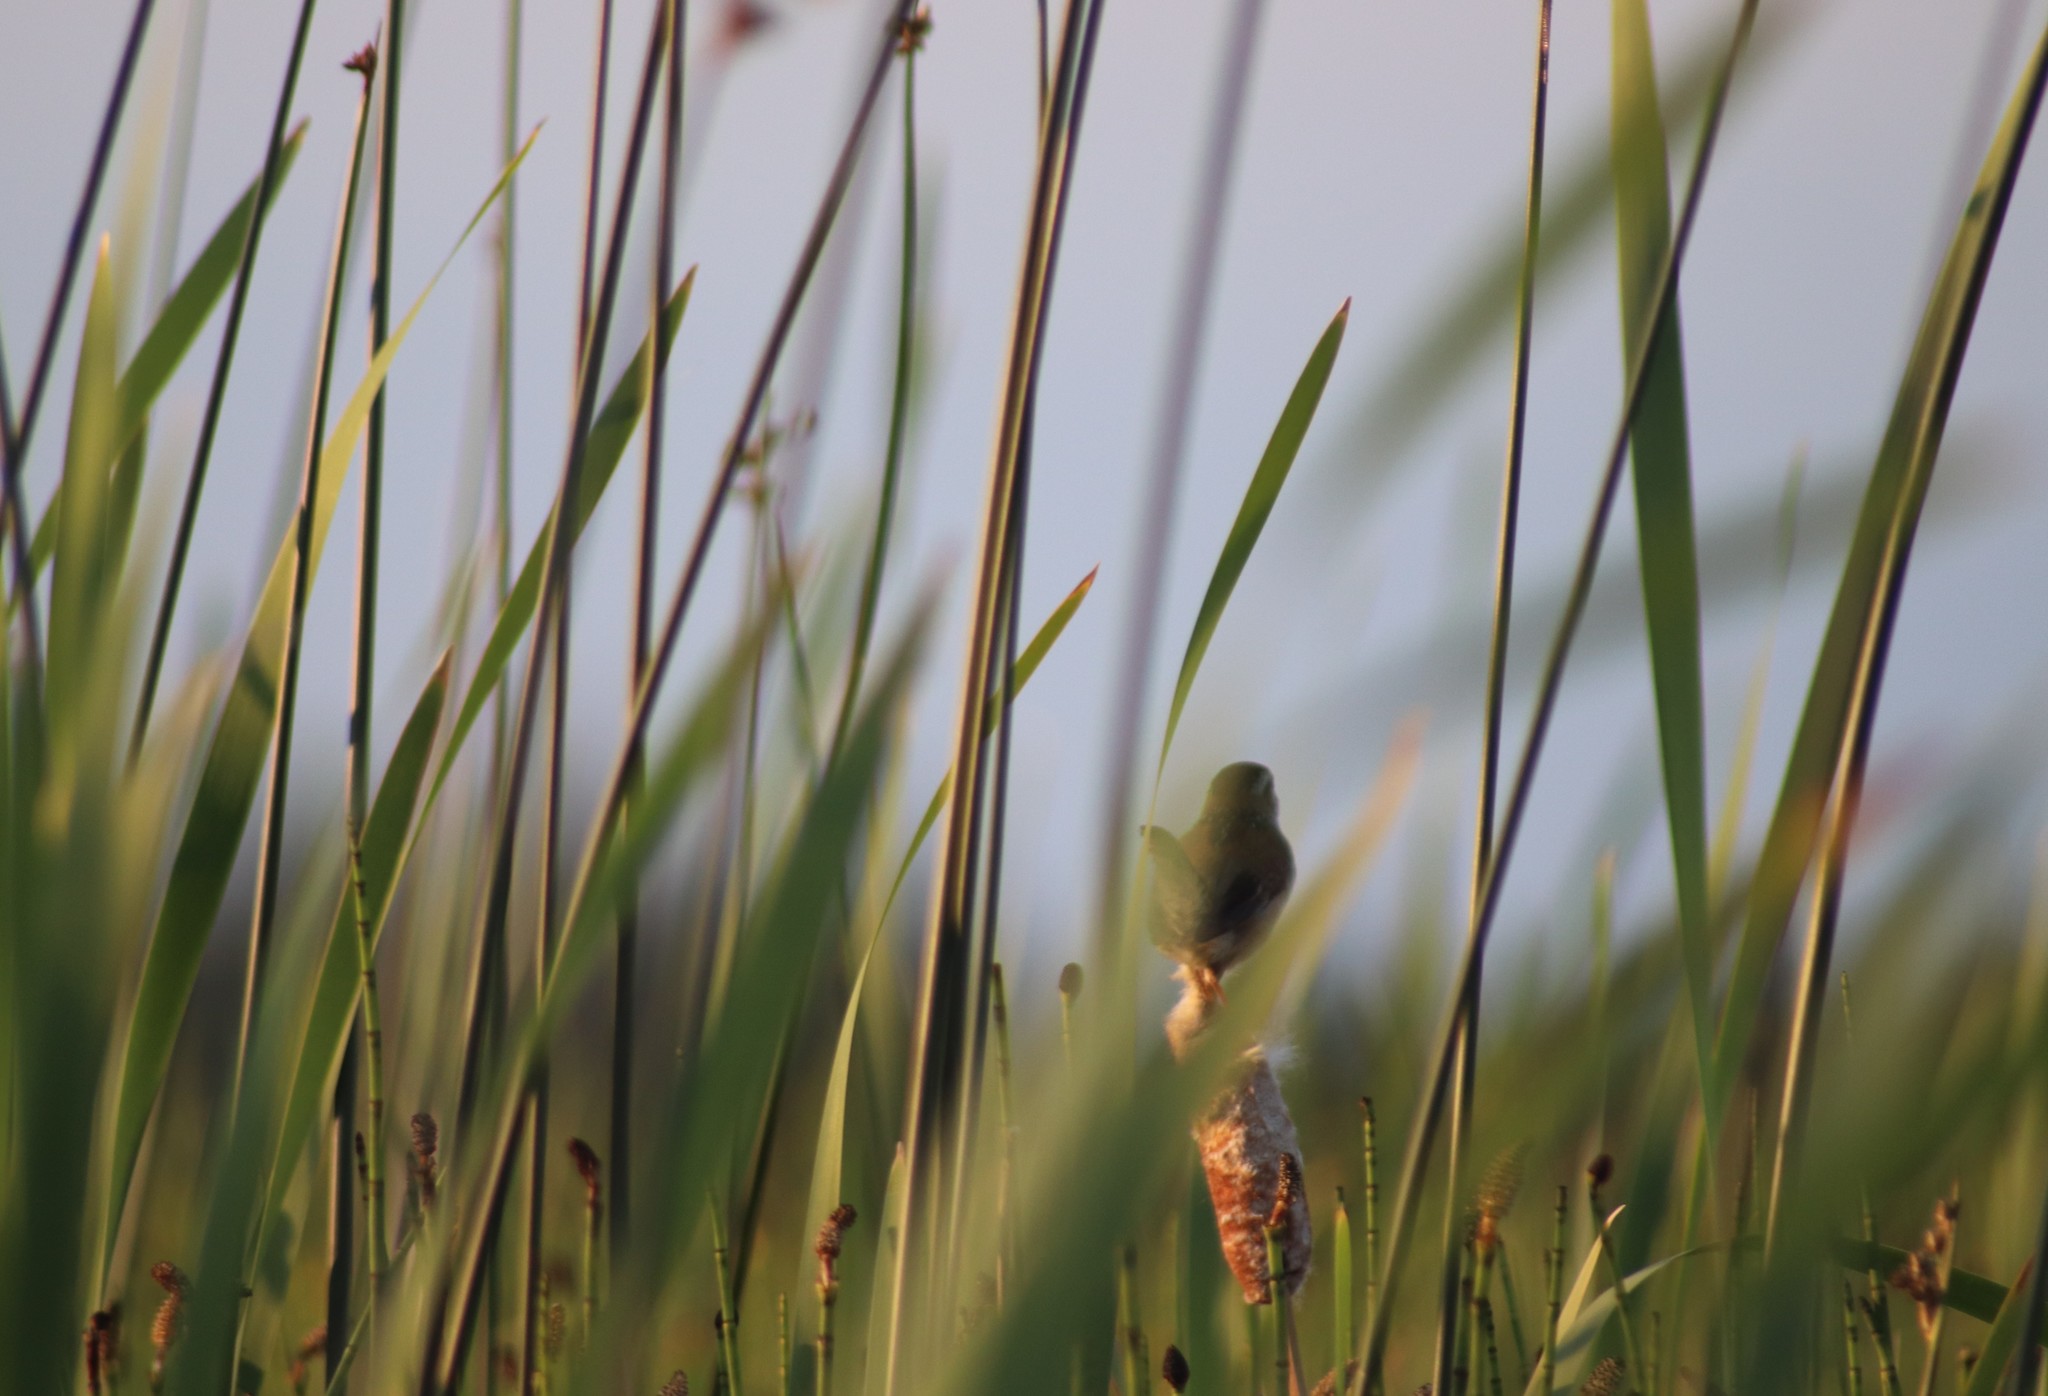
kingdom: Animalia
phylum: Chordata
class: Aves
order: Passeriformes
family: Troglodytidae
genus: Cistothorus
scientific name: Cistothorus palustris
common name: Marsh wren
